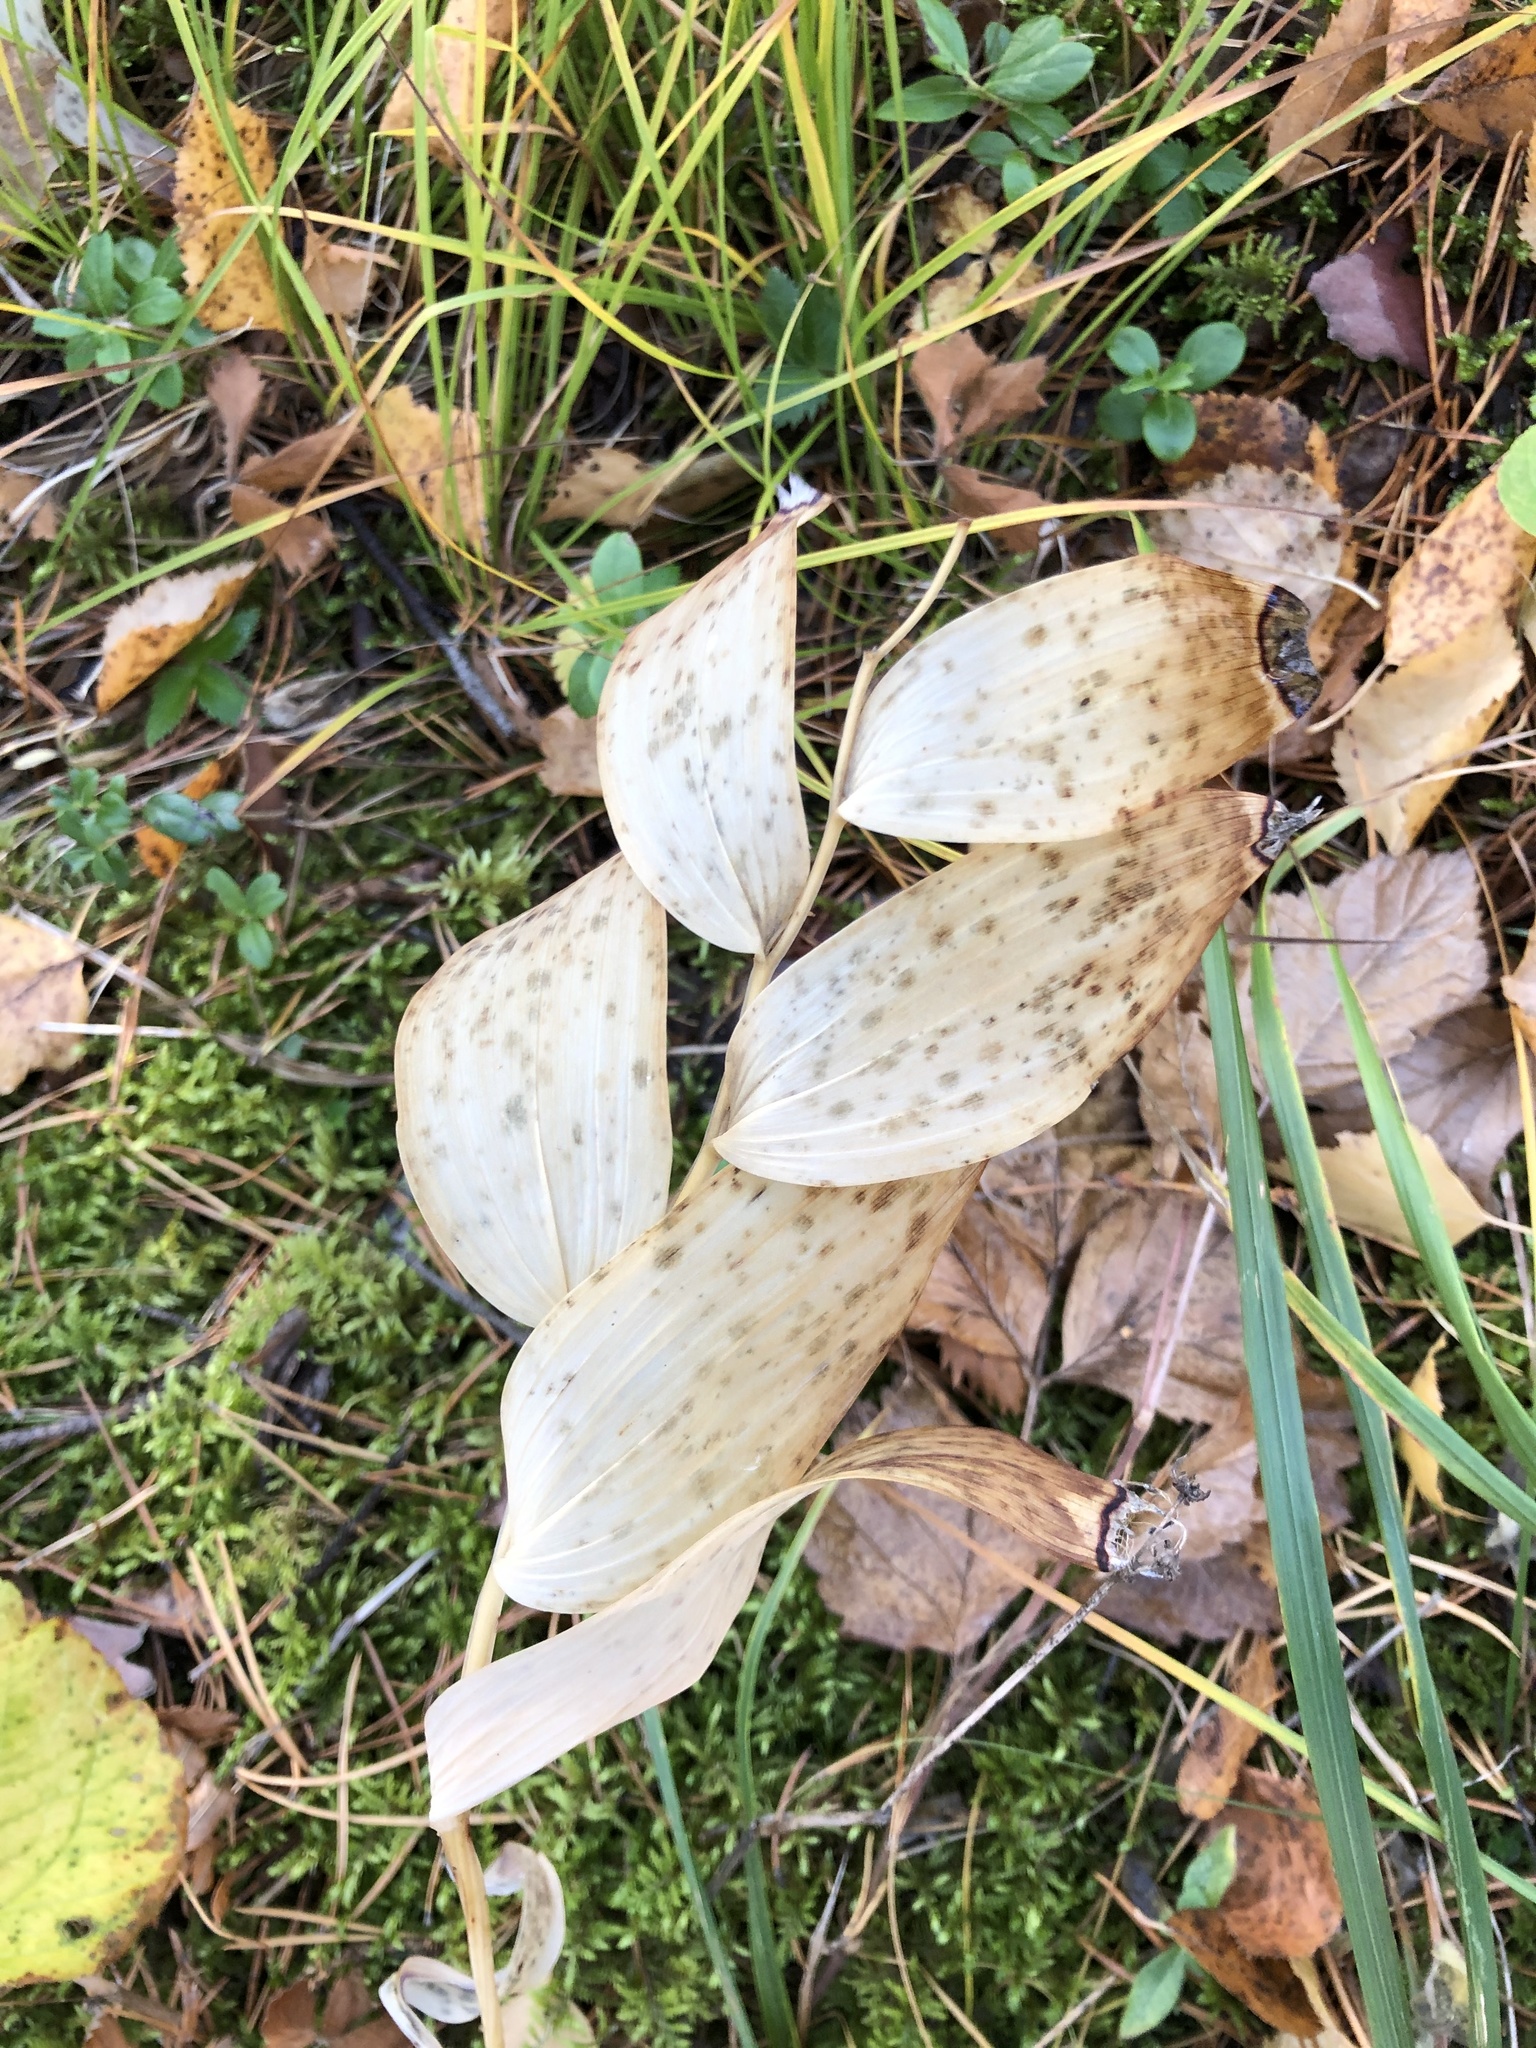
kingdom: Plantae
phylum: Tracheophyta
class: Liliopsida
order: Asparagales
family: Asparagaceae
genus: Polygonatum
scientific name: Polygonatum odoratum
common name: Angular solomon's-seal
